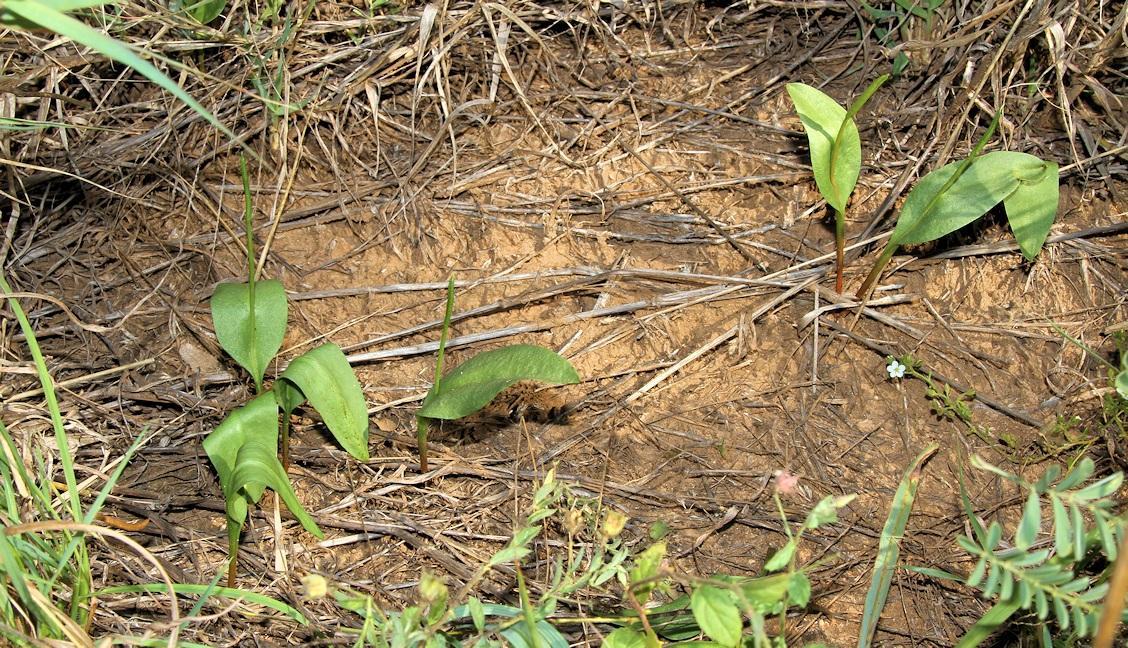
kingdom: Plantae
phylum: Tracheophyta
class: Polypodiopsida
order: Ophioglossales
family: Ophioglossaceae
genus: Ophioglossum
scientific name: Ophioglossum polyphyllum
